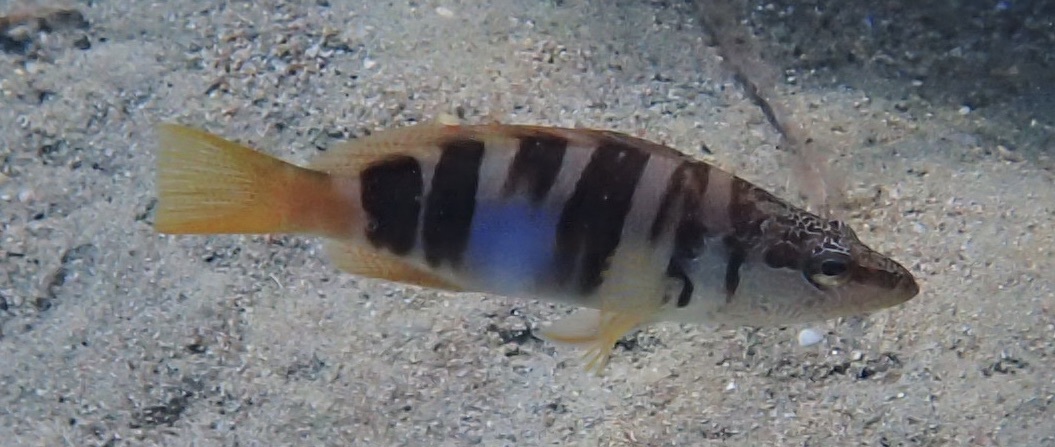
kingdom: Animalia
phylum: Chordata
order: Perciformes
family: Serranidae
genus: Serranus
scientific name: Serranus scriba
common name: Painted comber
